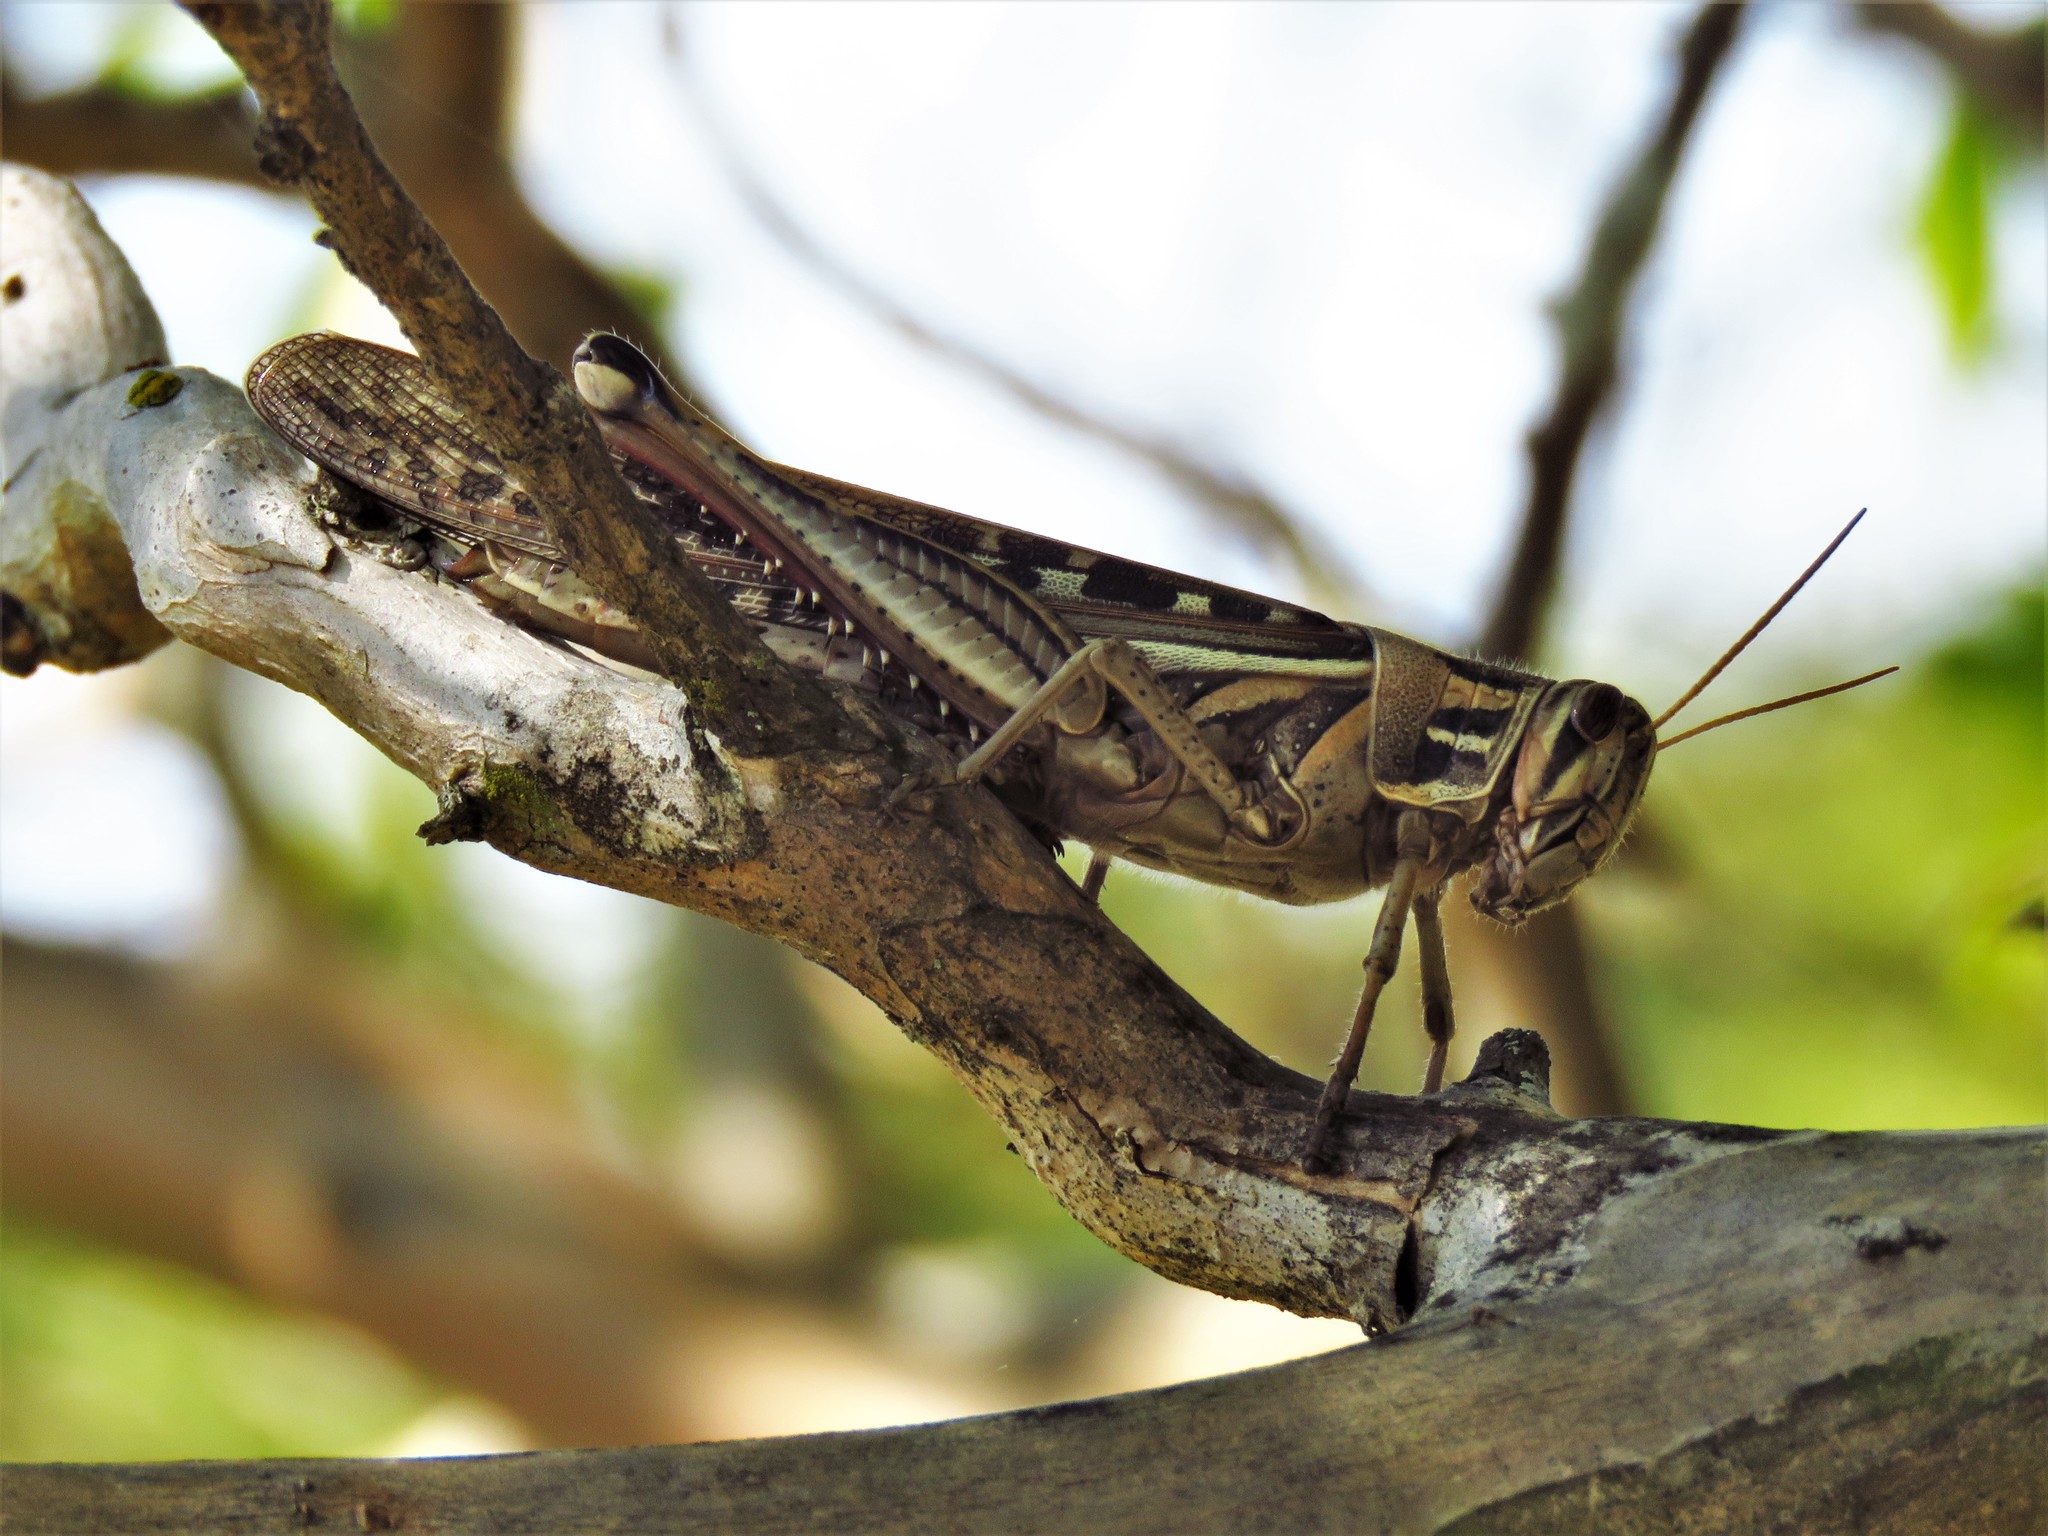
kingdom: Animalia
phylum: Arthropoda
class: Insecta
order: Orthoptera
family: Acrididae
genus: Schistocerca
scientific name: Schistocerca americana
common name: American bird locust
